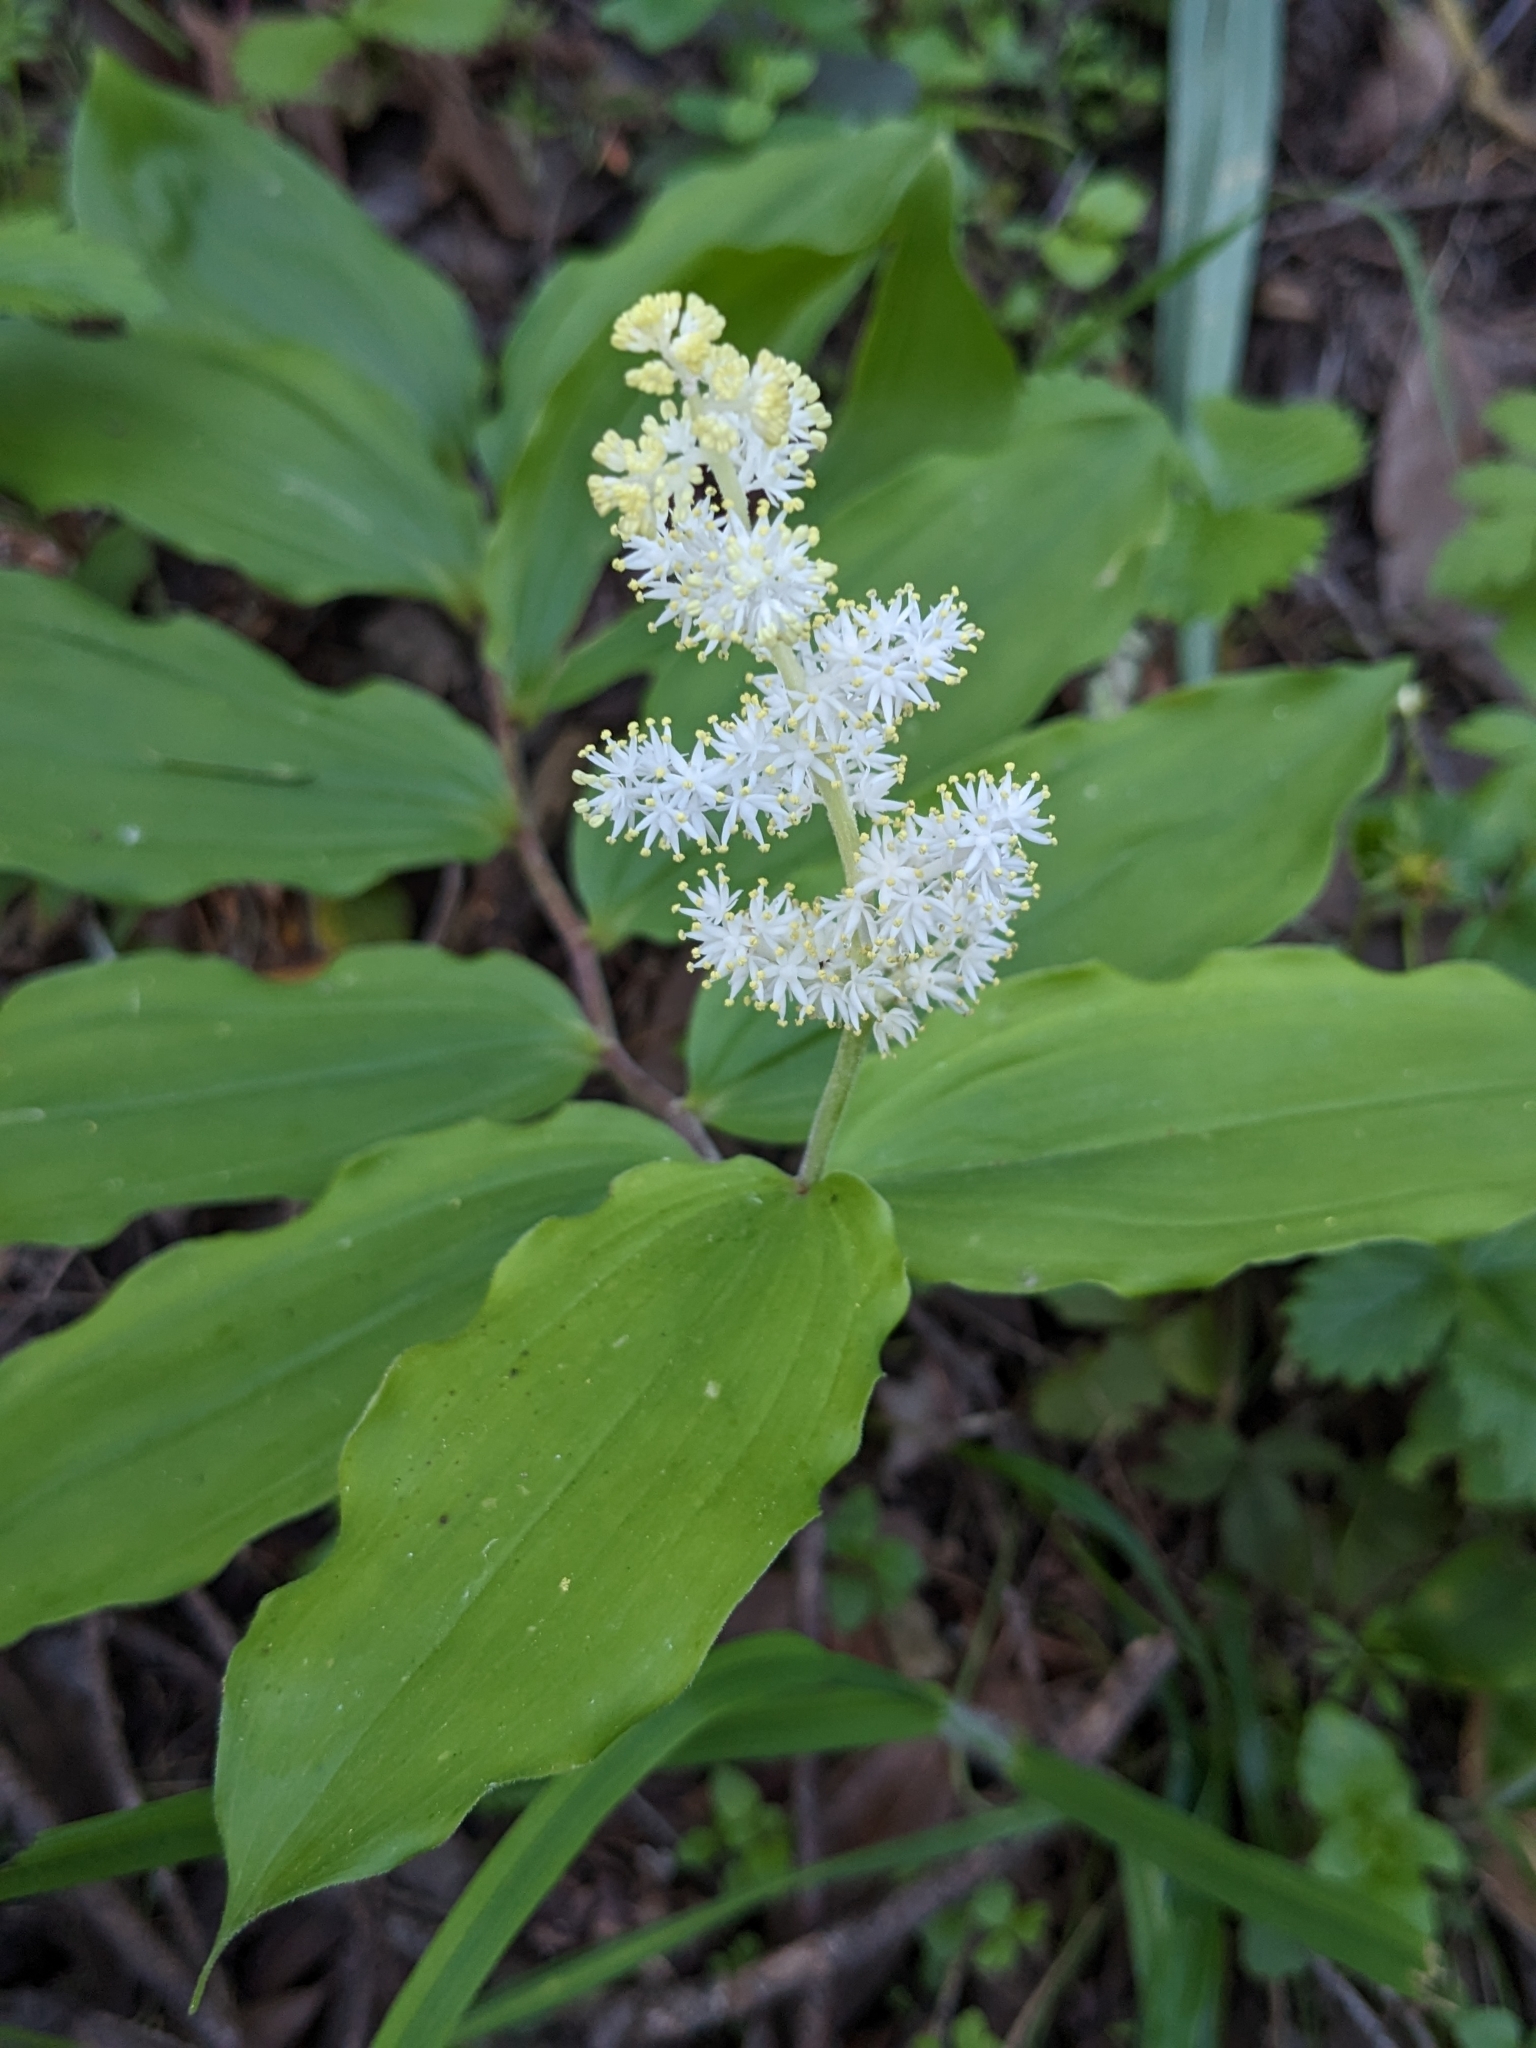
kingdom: Plantae
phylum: Tracheophyta
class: Liliopsida
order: Asparagales
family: Asparagaceae
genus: Maianthemum
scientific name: Maianthemum racemosum
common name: False spikenard
